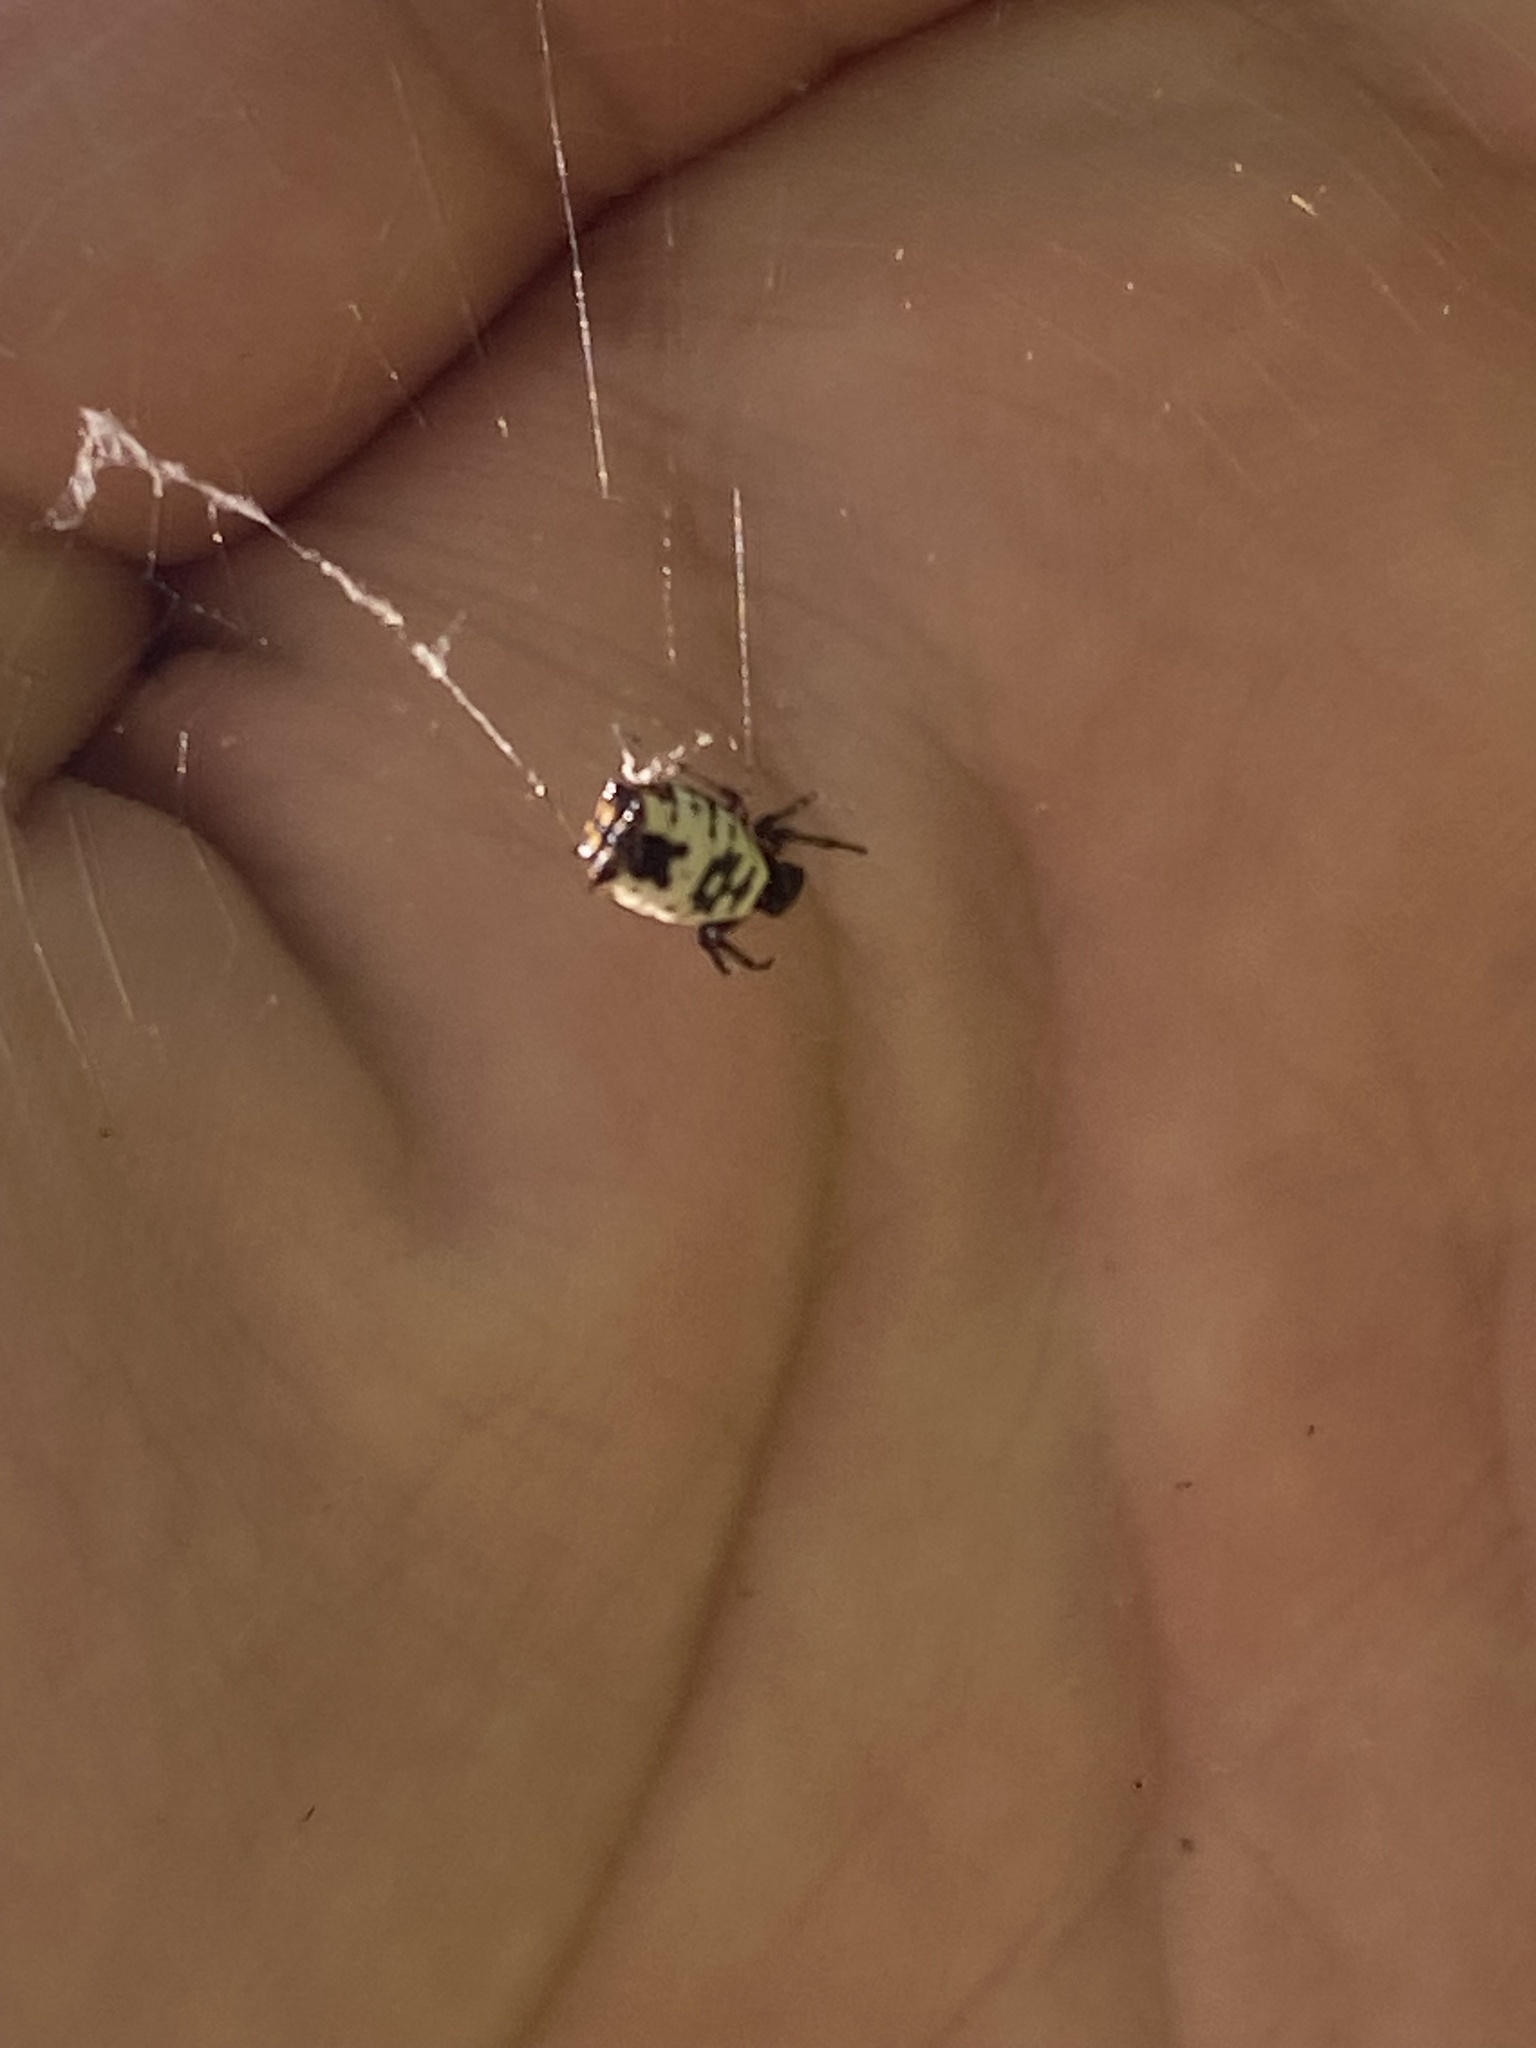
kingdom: Animalia
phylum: Arthropoda
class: Arachnida
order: Araneae
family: Araneidae
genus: Micrathena
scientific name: Micrathena mitrata
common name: Orb weavers
